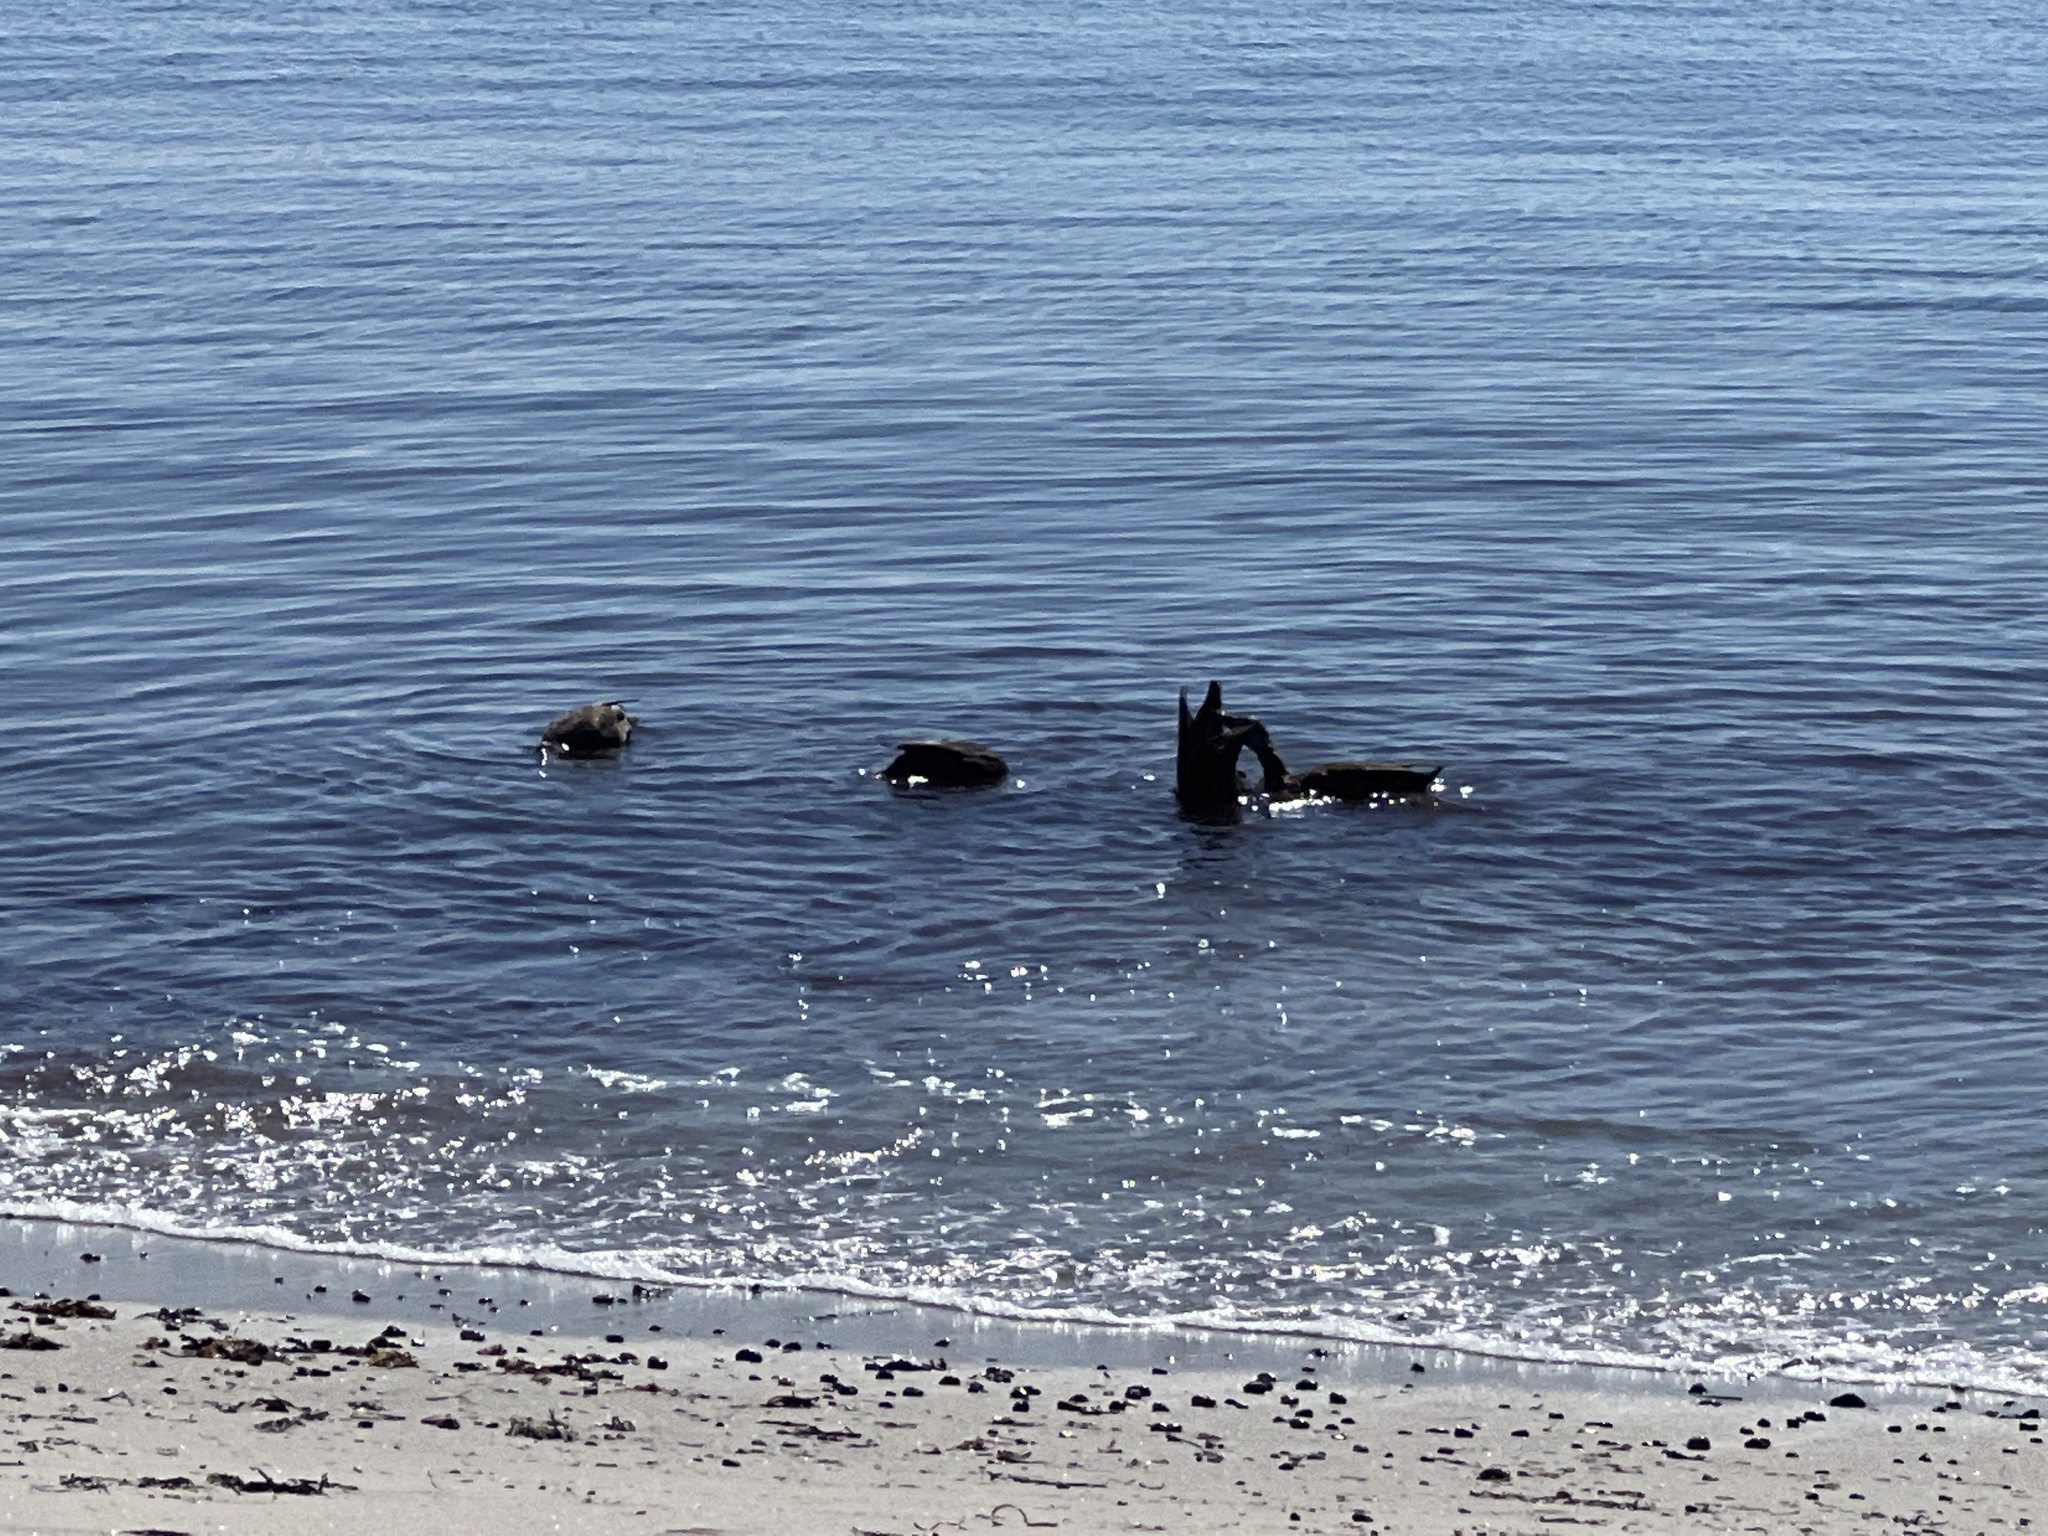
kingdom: Animalia
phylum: Chordata
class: Aves
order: Anseriformes
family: Anatidae
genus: Anas
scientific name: Anas rubripes
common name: American black duck
